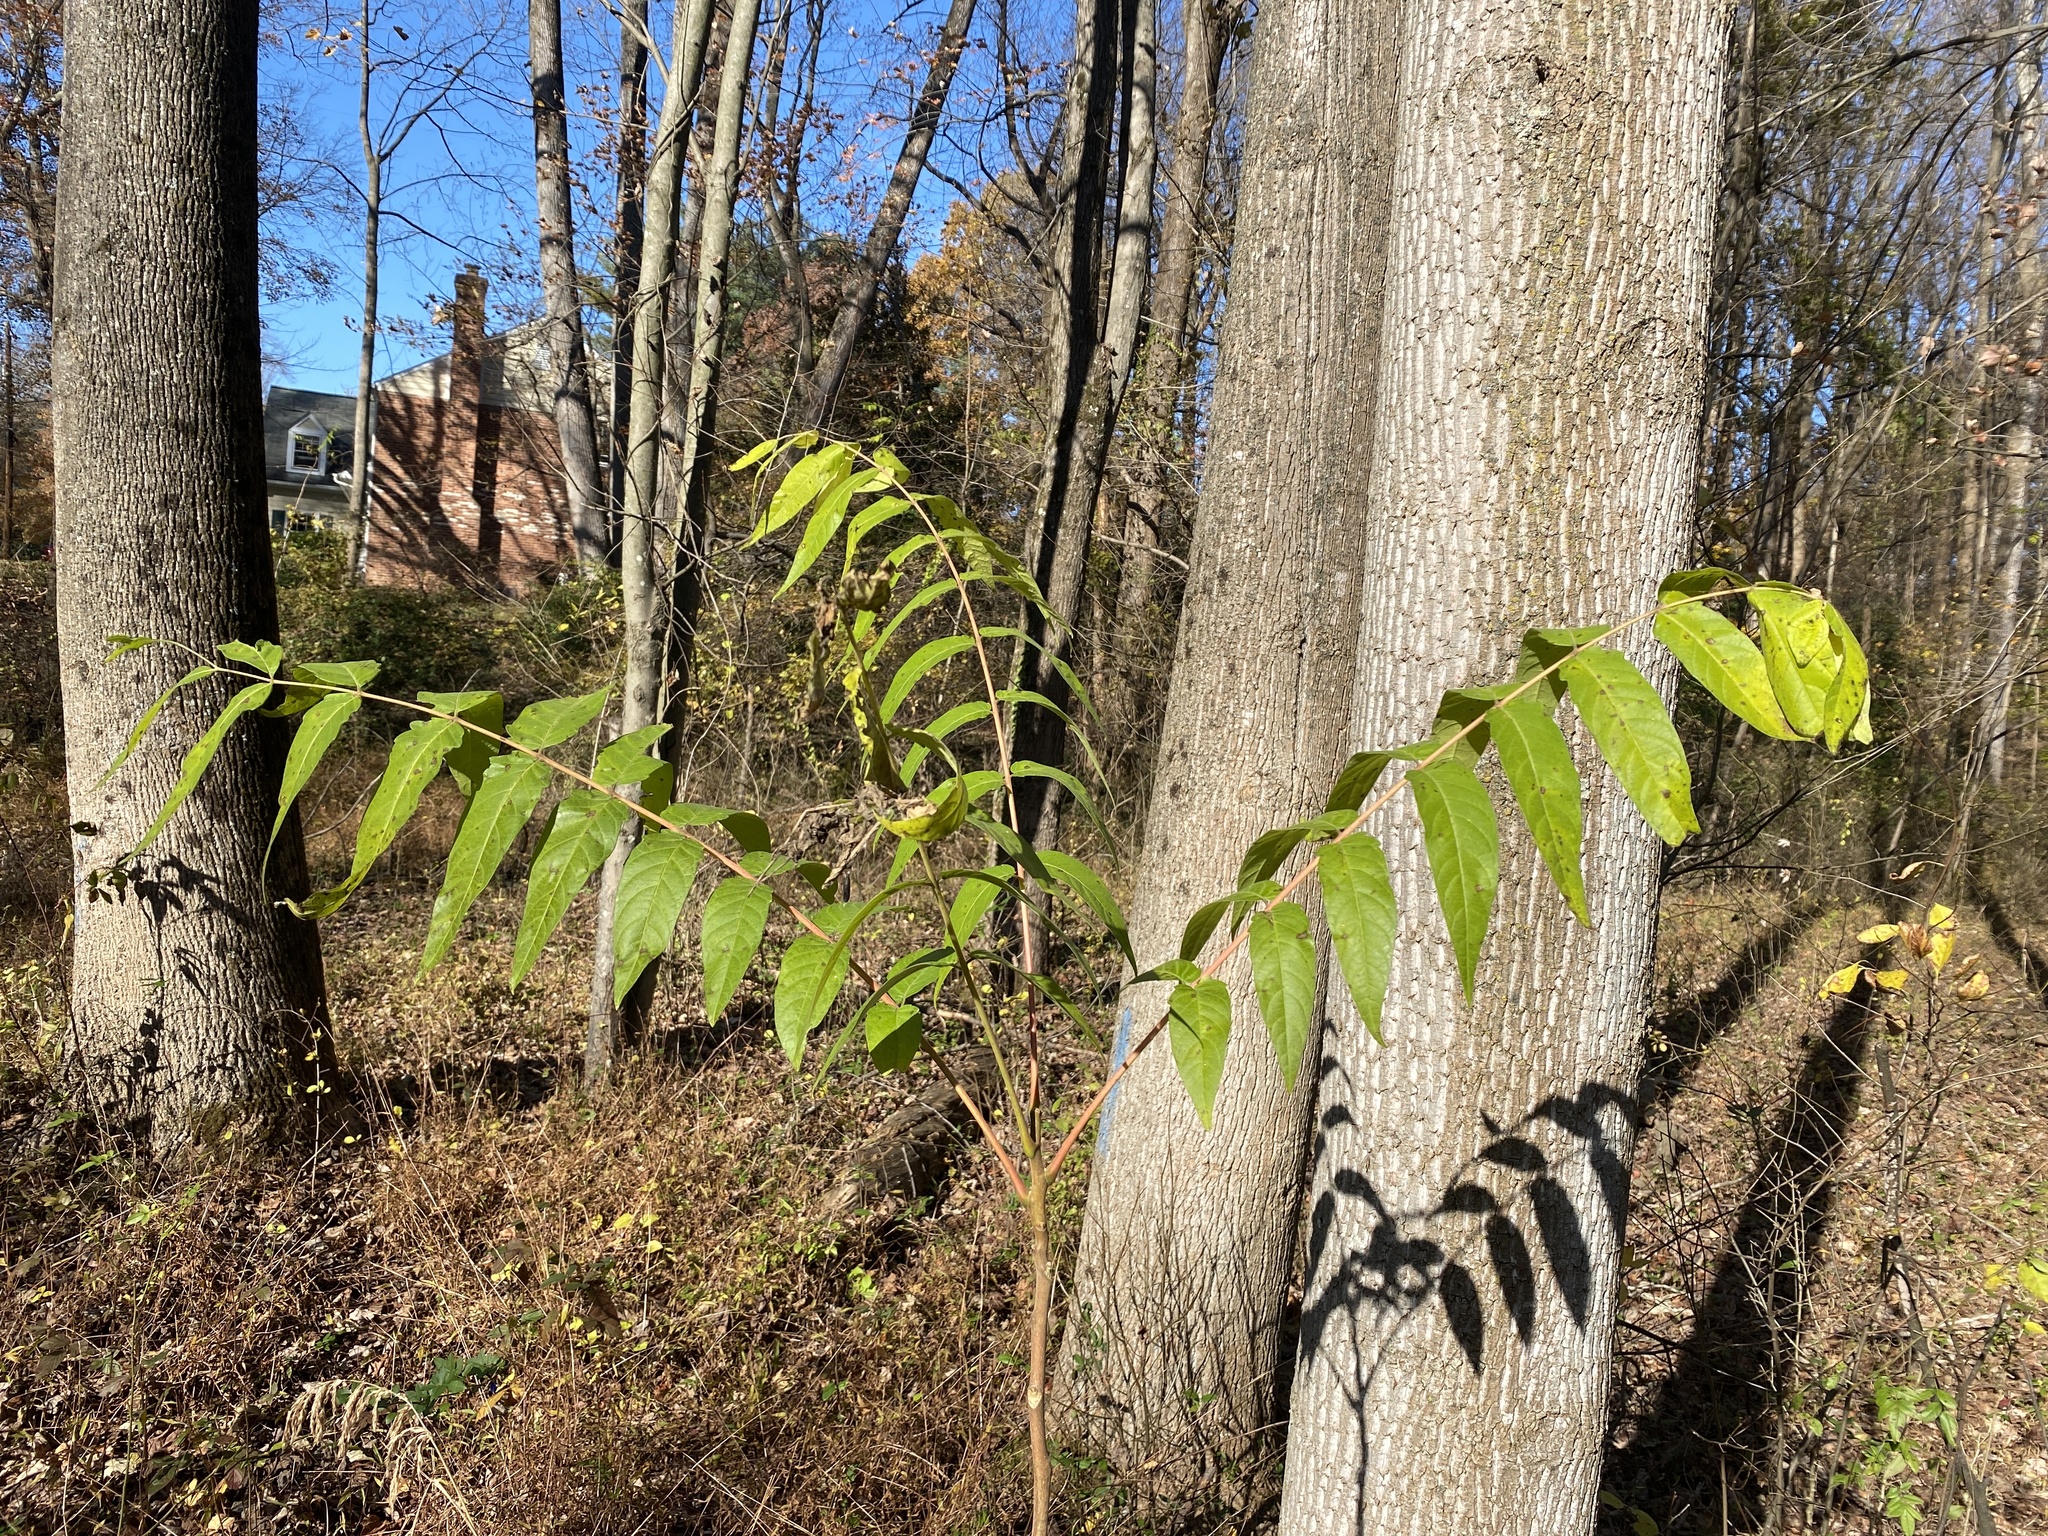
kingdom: Plantae
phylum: Tracheophyta
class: Magnoliopsida
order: Sapindales
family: Simaroubaceae
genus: Ailanthus
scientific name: Ailanthus altissima
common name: Tree-of-heaven
